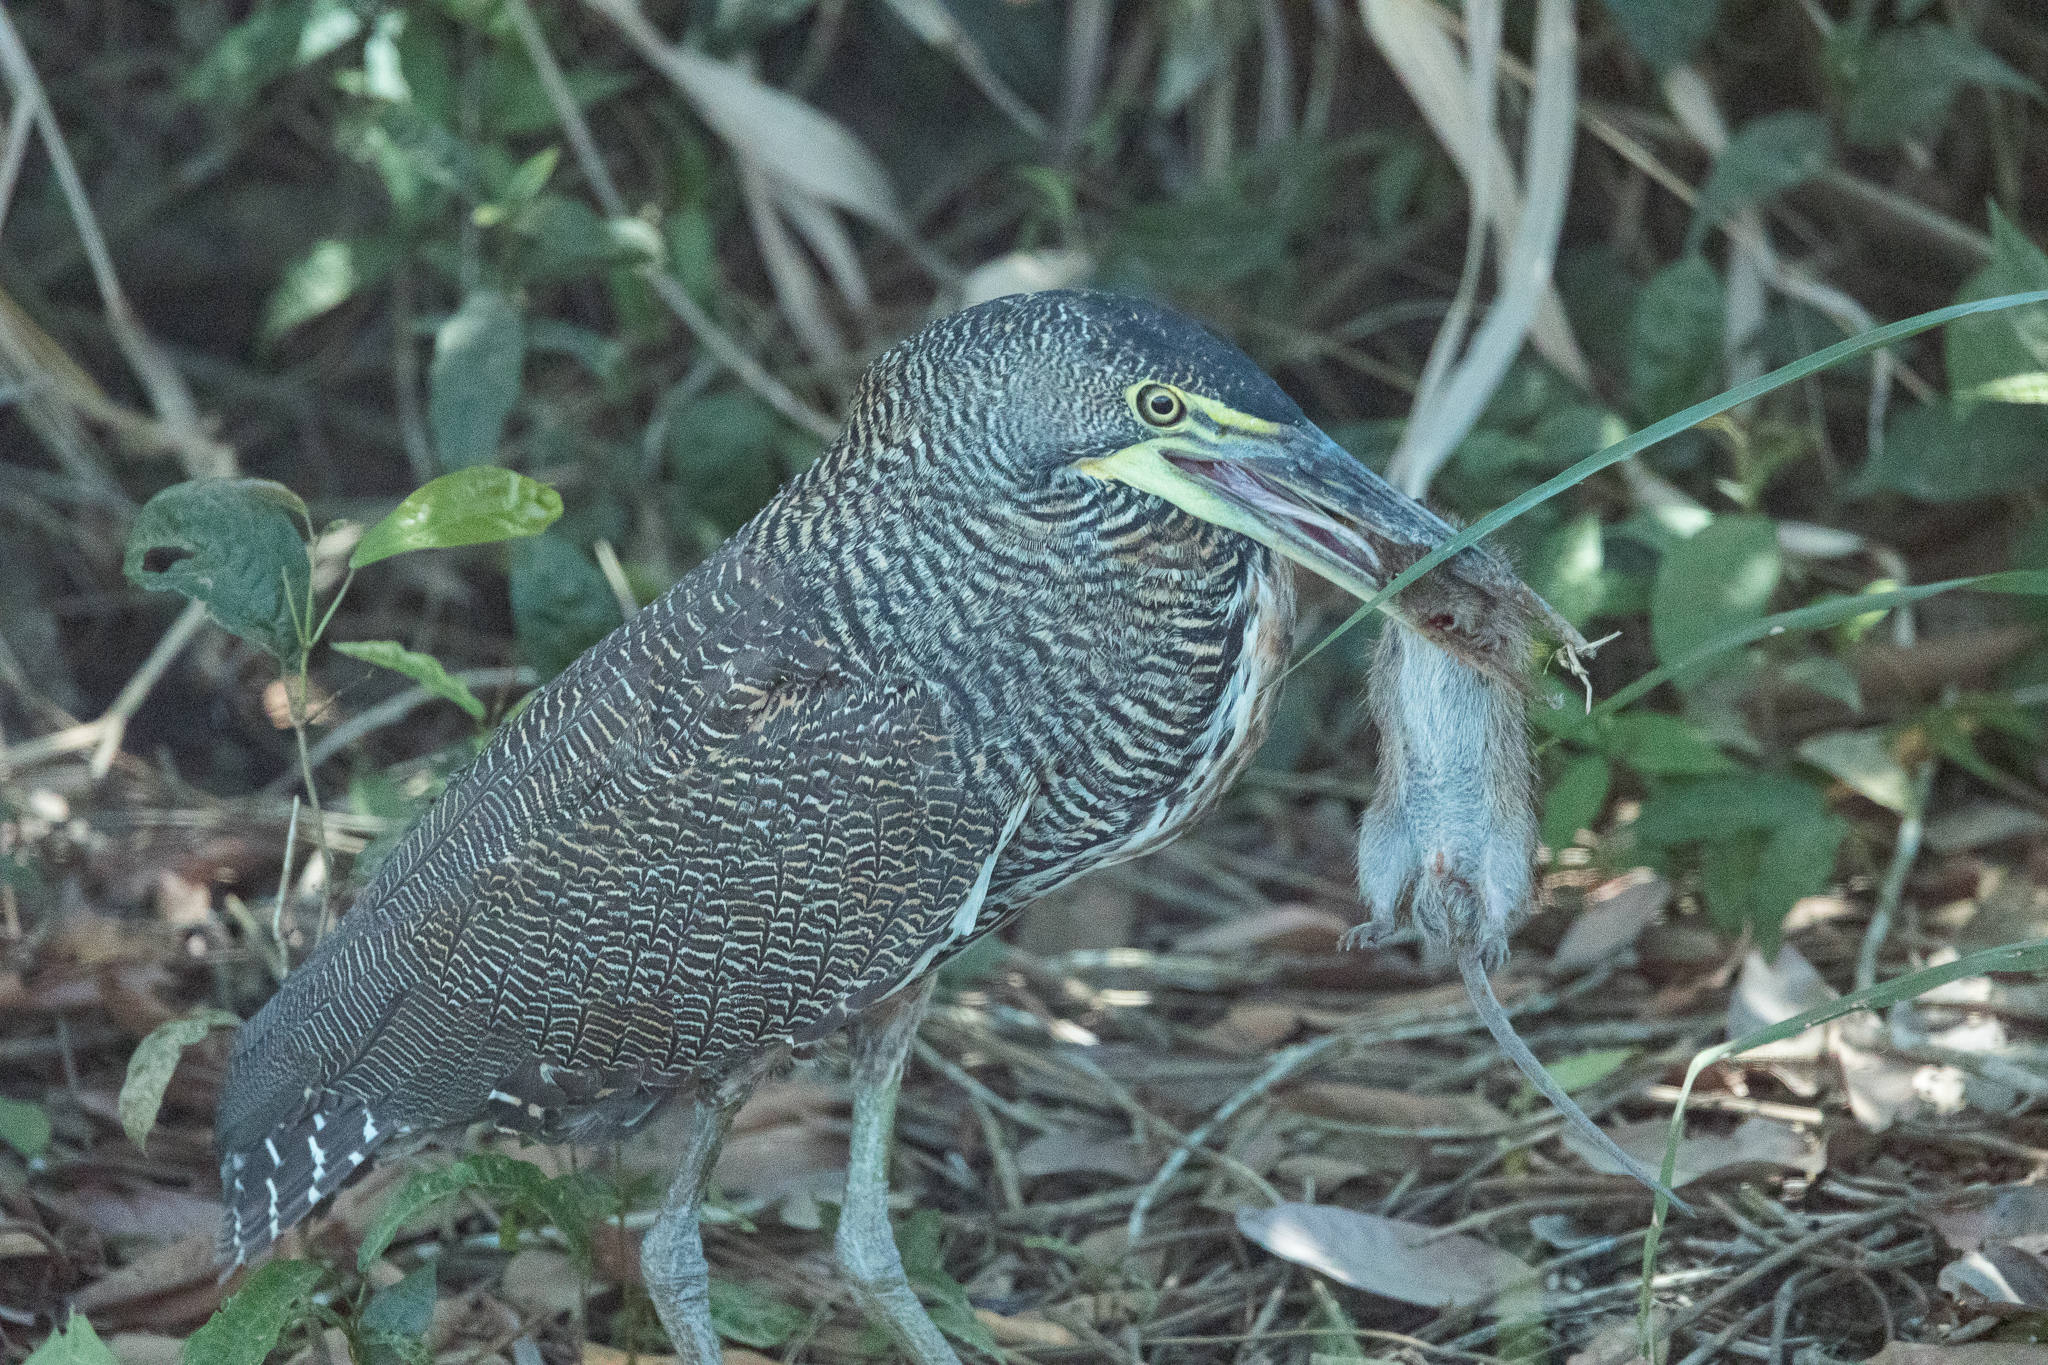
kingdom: Animalia
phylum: Chordata
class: Aves
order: Pelecaniformes
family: Ardeidae
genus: Tigrisoma
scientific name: Tigrisoma mexicanum
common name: Bare-throated tiger-heron
